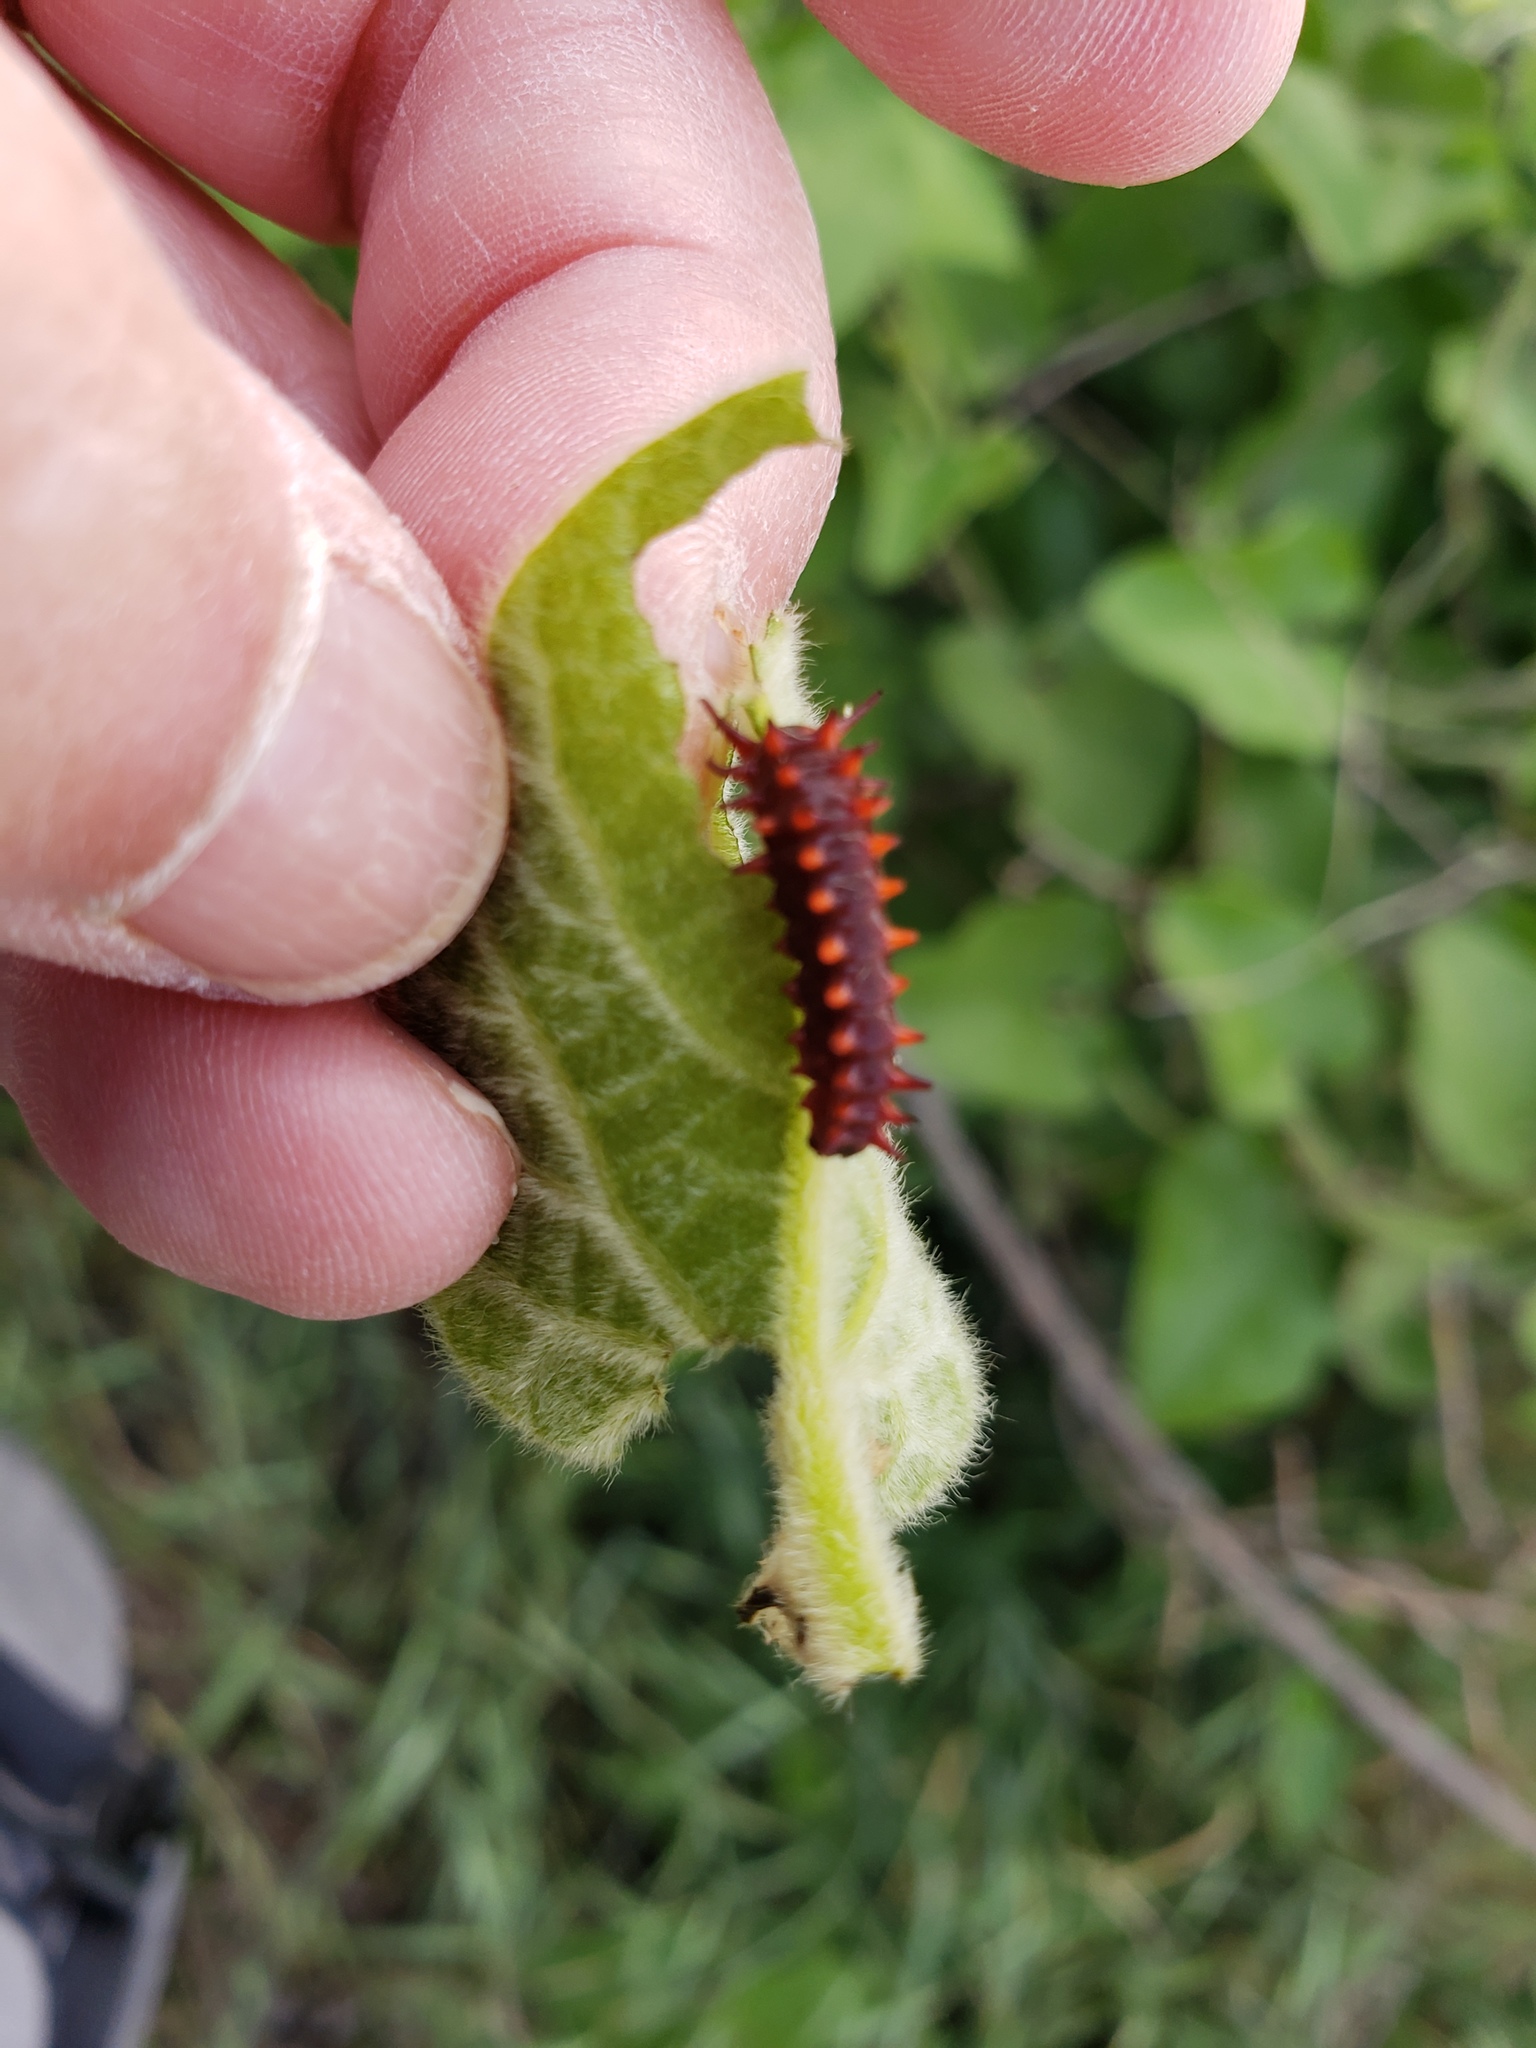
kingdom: Animalia
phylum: Arthropoda
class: Insecta
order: Lepidoptera
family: Papilionidae
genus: Battus
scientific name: Battus philenor
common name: Pipevine swallowtail
